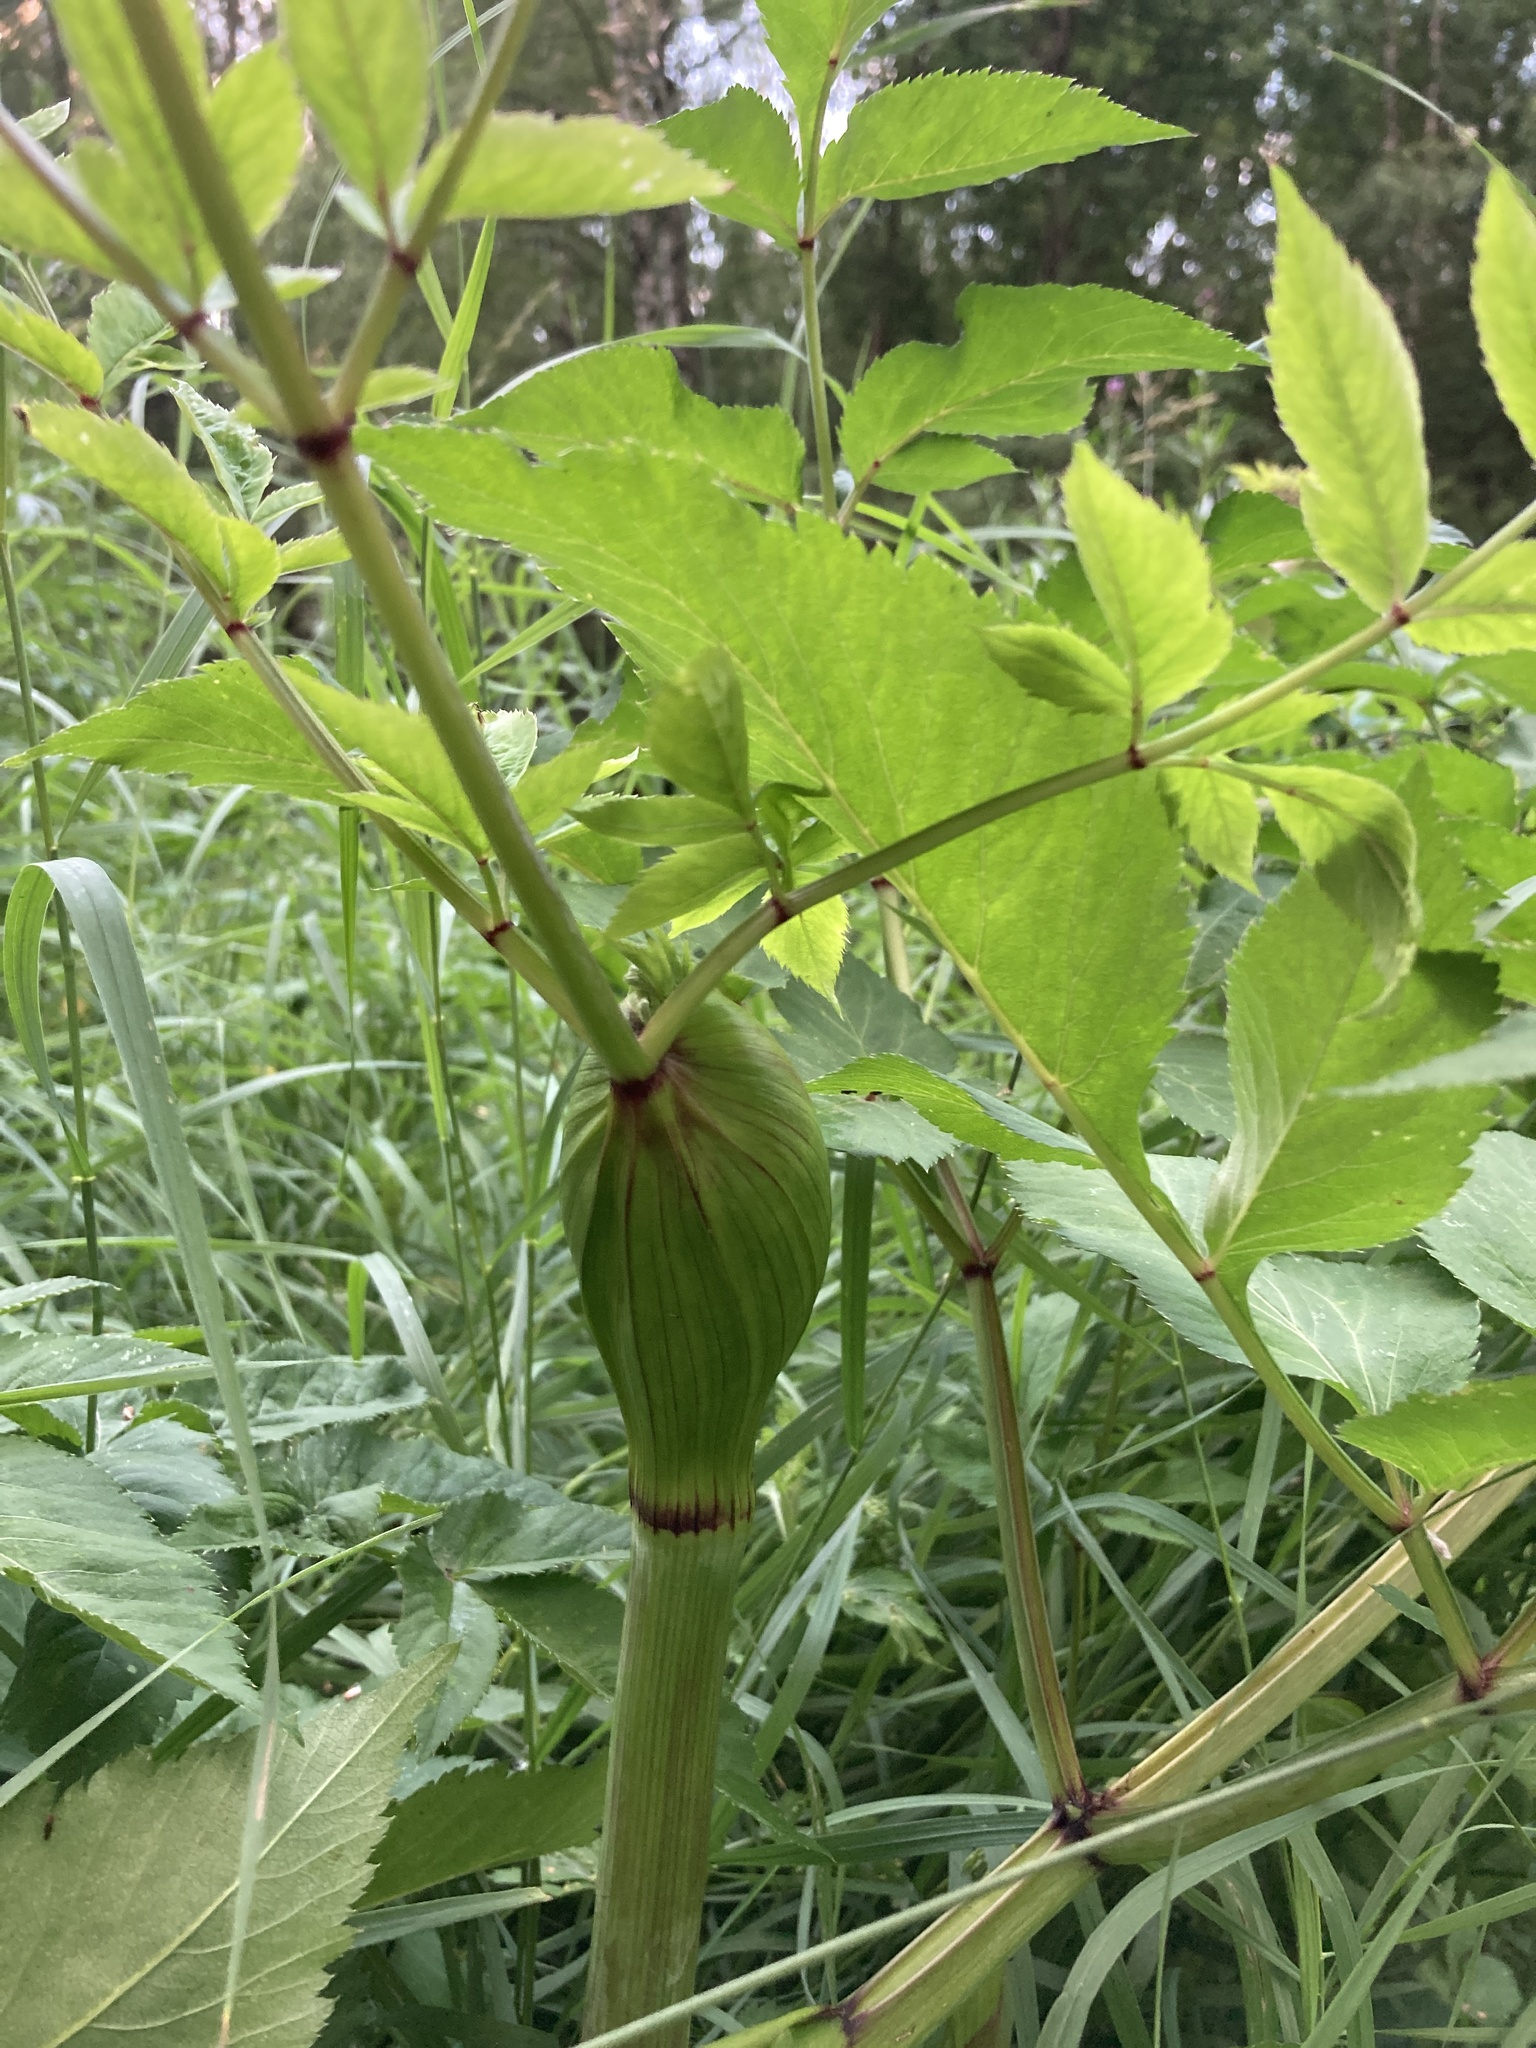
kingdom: Plantae
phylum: Tracheophyta
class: Magnoliopsida
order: Apiales
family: Apiaceae
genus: Angelica
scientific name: Angelica sylvestris
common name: Wild angelica
